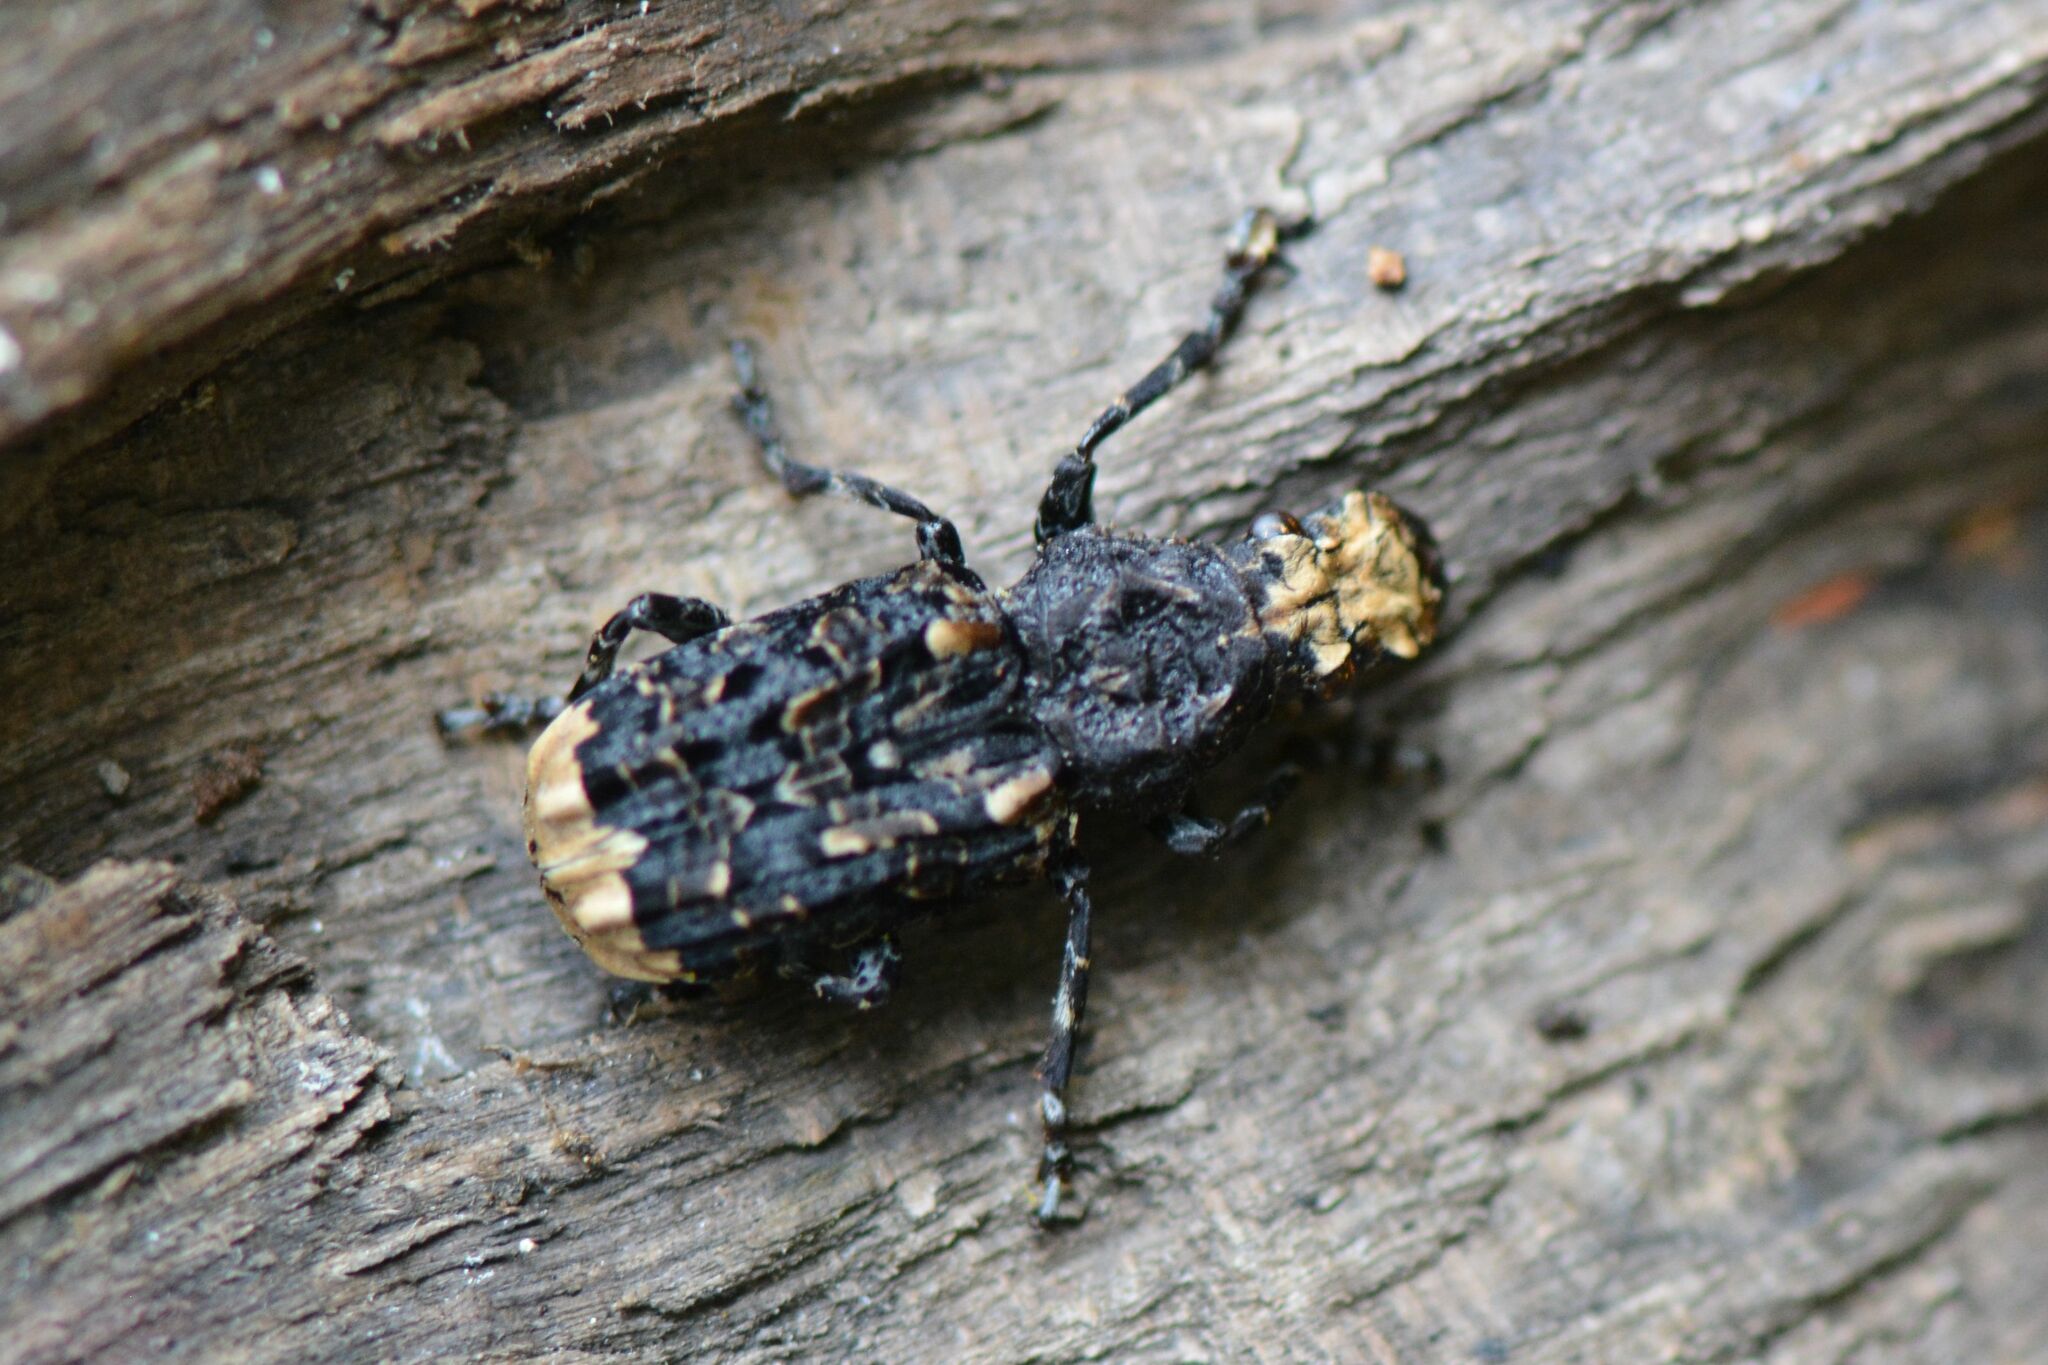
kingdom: Animalia
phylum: Arthropoda
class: Insecta
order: Coleoptera
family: Anthribidae
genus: Platyrhinus
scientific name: Platyrhinus resinosus
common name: Cramp-ball fungus weevil
